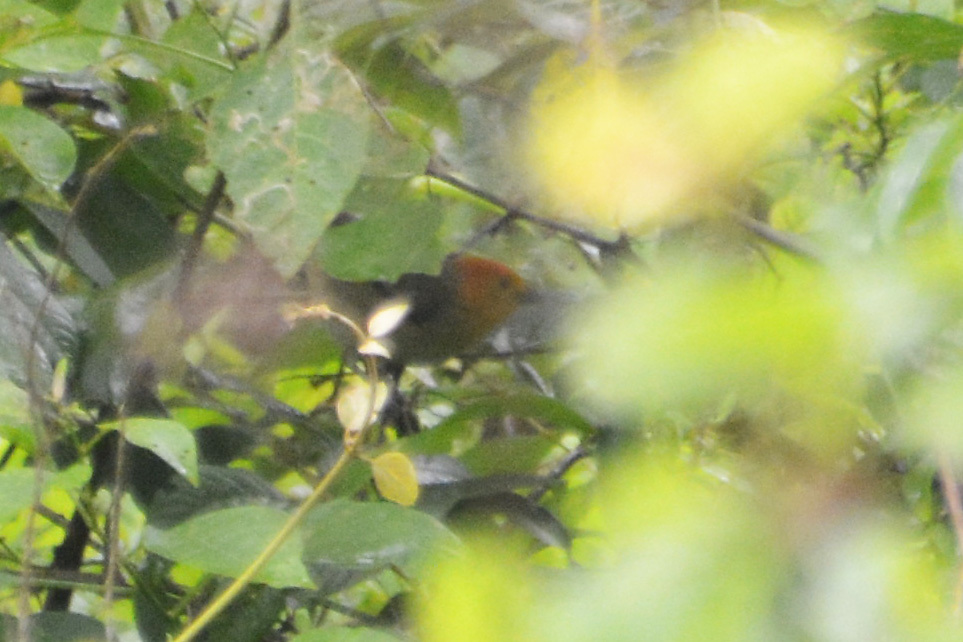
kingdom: Animalia
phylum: Chordata
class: Aves
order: Passeriformes
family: Thraupidae
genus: Thlypopsis
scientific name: Thlypopsis sordida
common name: Orange-headed tanager
